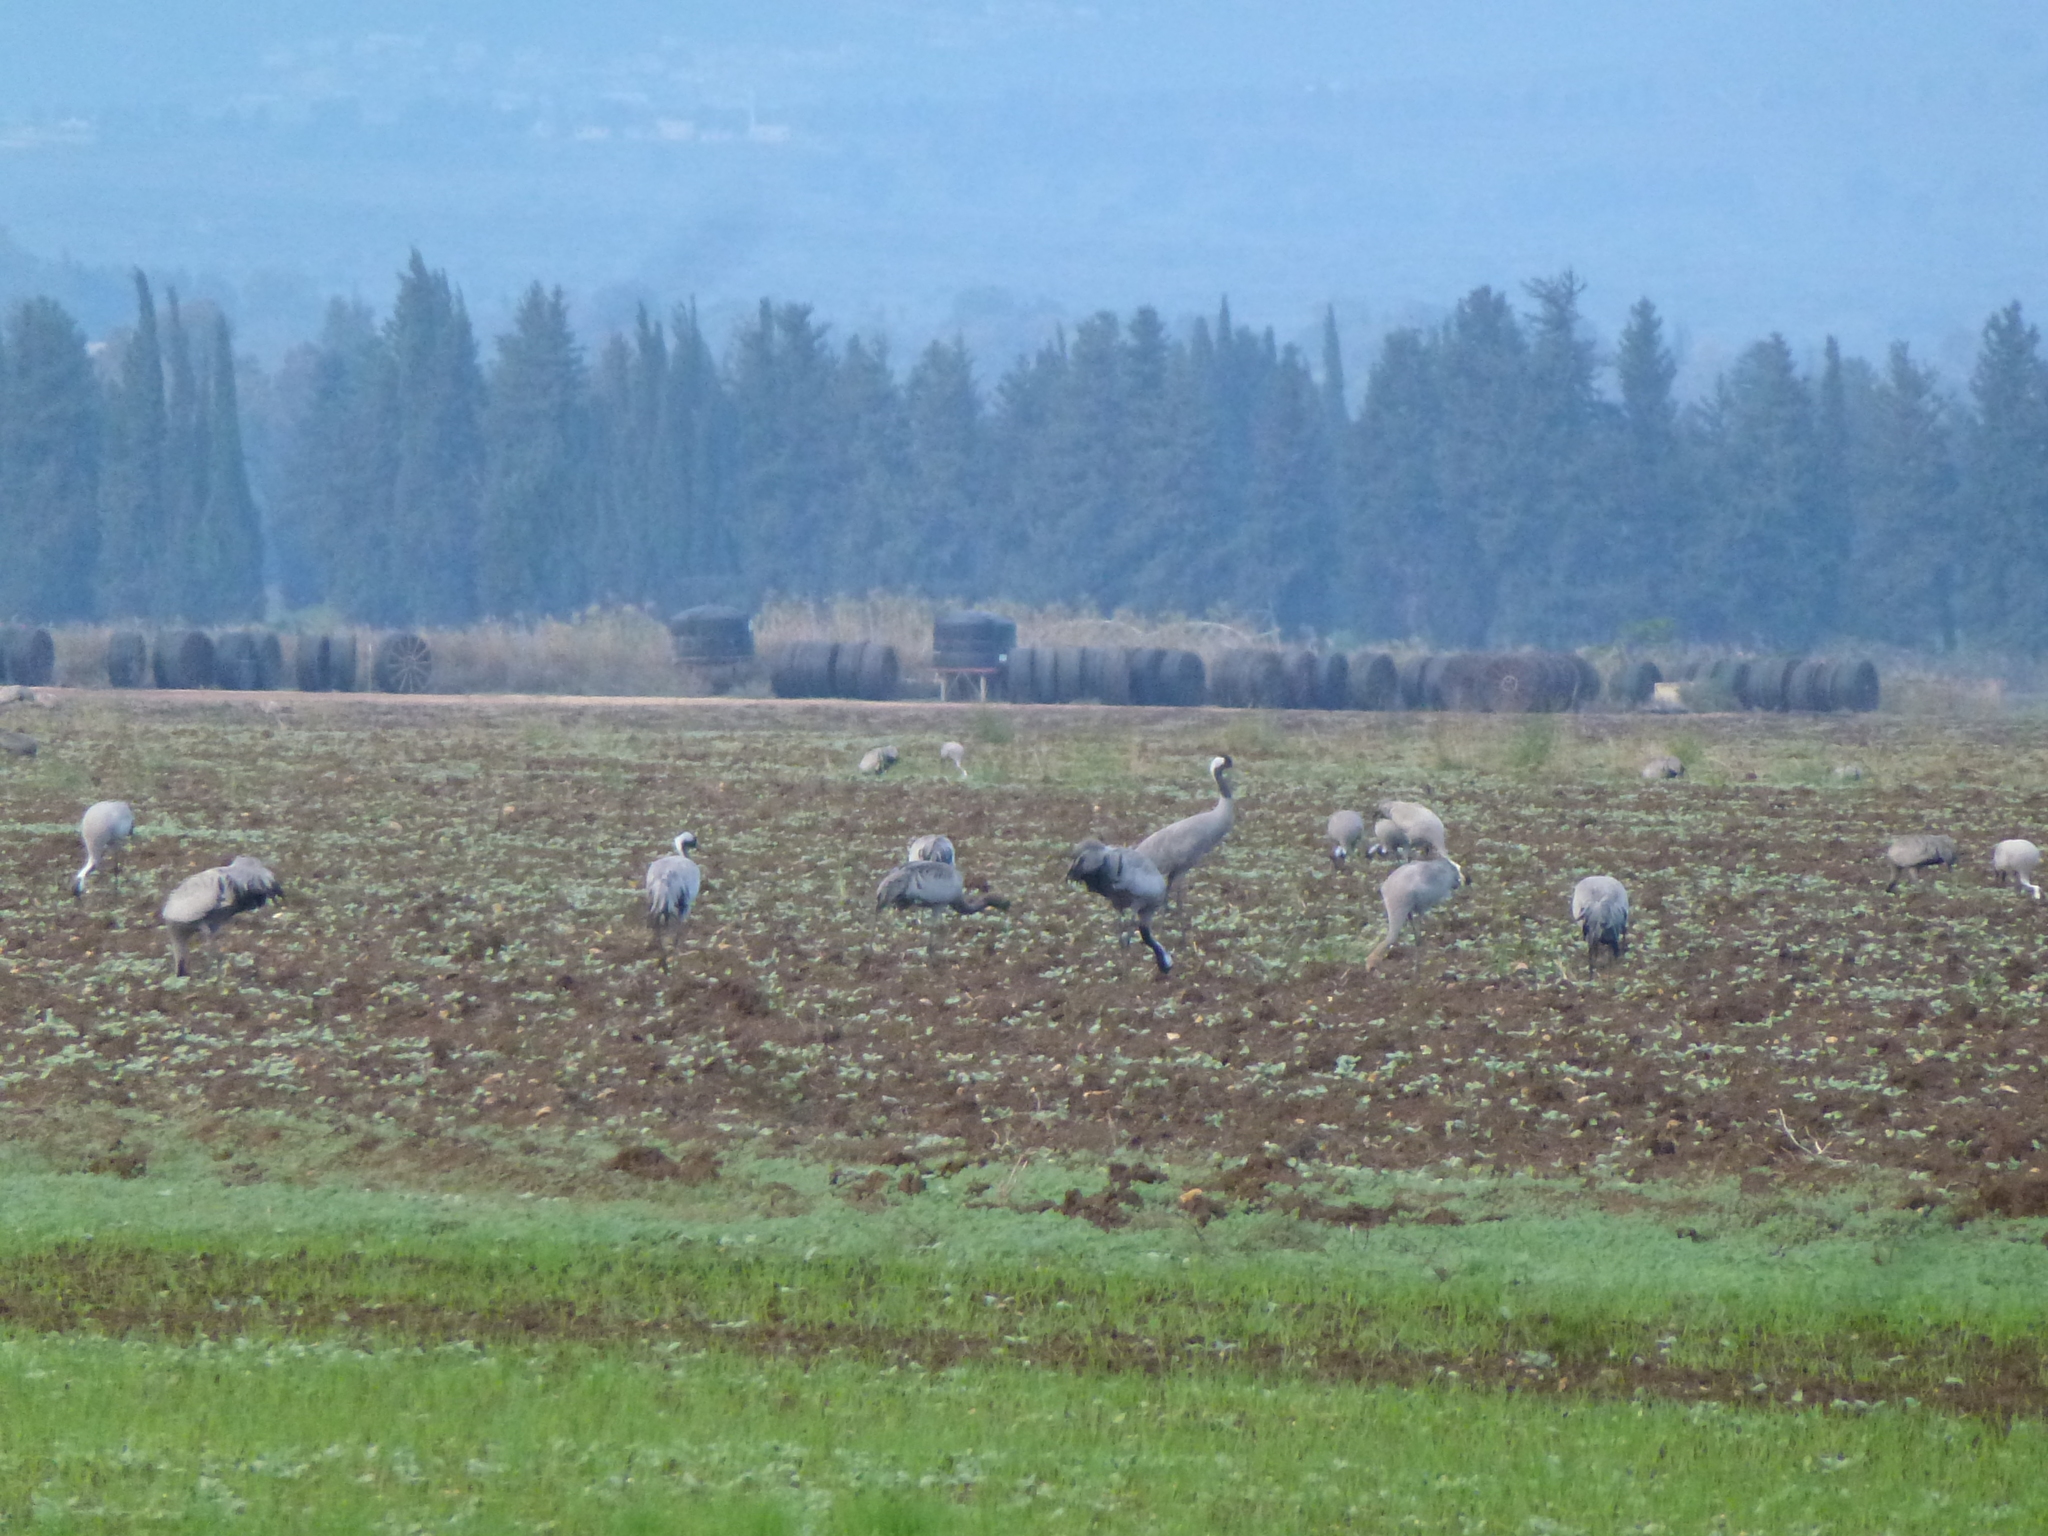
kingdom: Animalia
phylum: Chordata
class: Aves
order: Gruiformes
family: Gruidae
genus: Grus
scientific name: Grus grus
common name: Common crane
